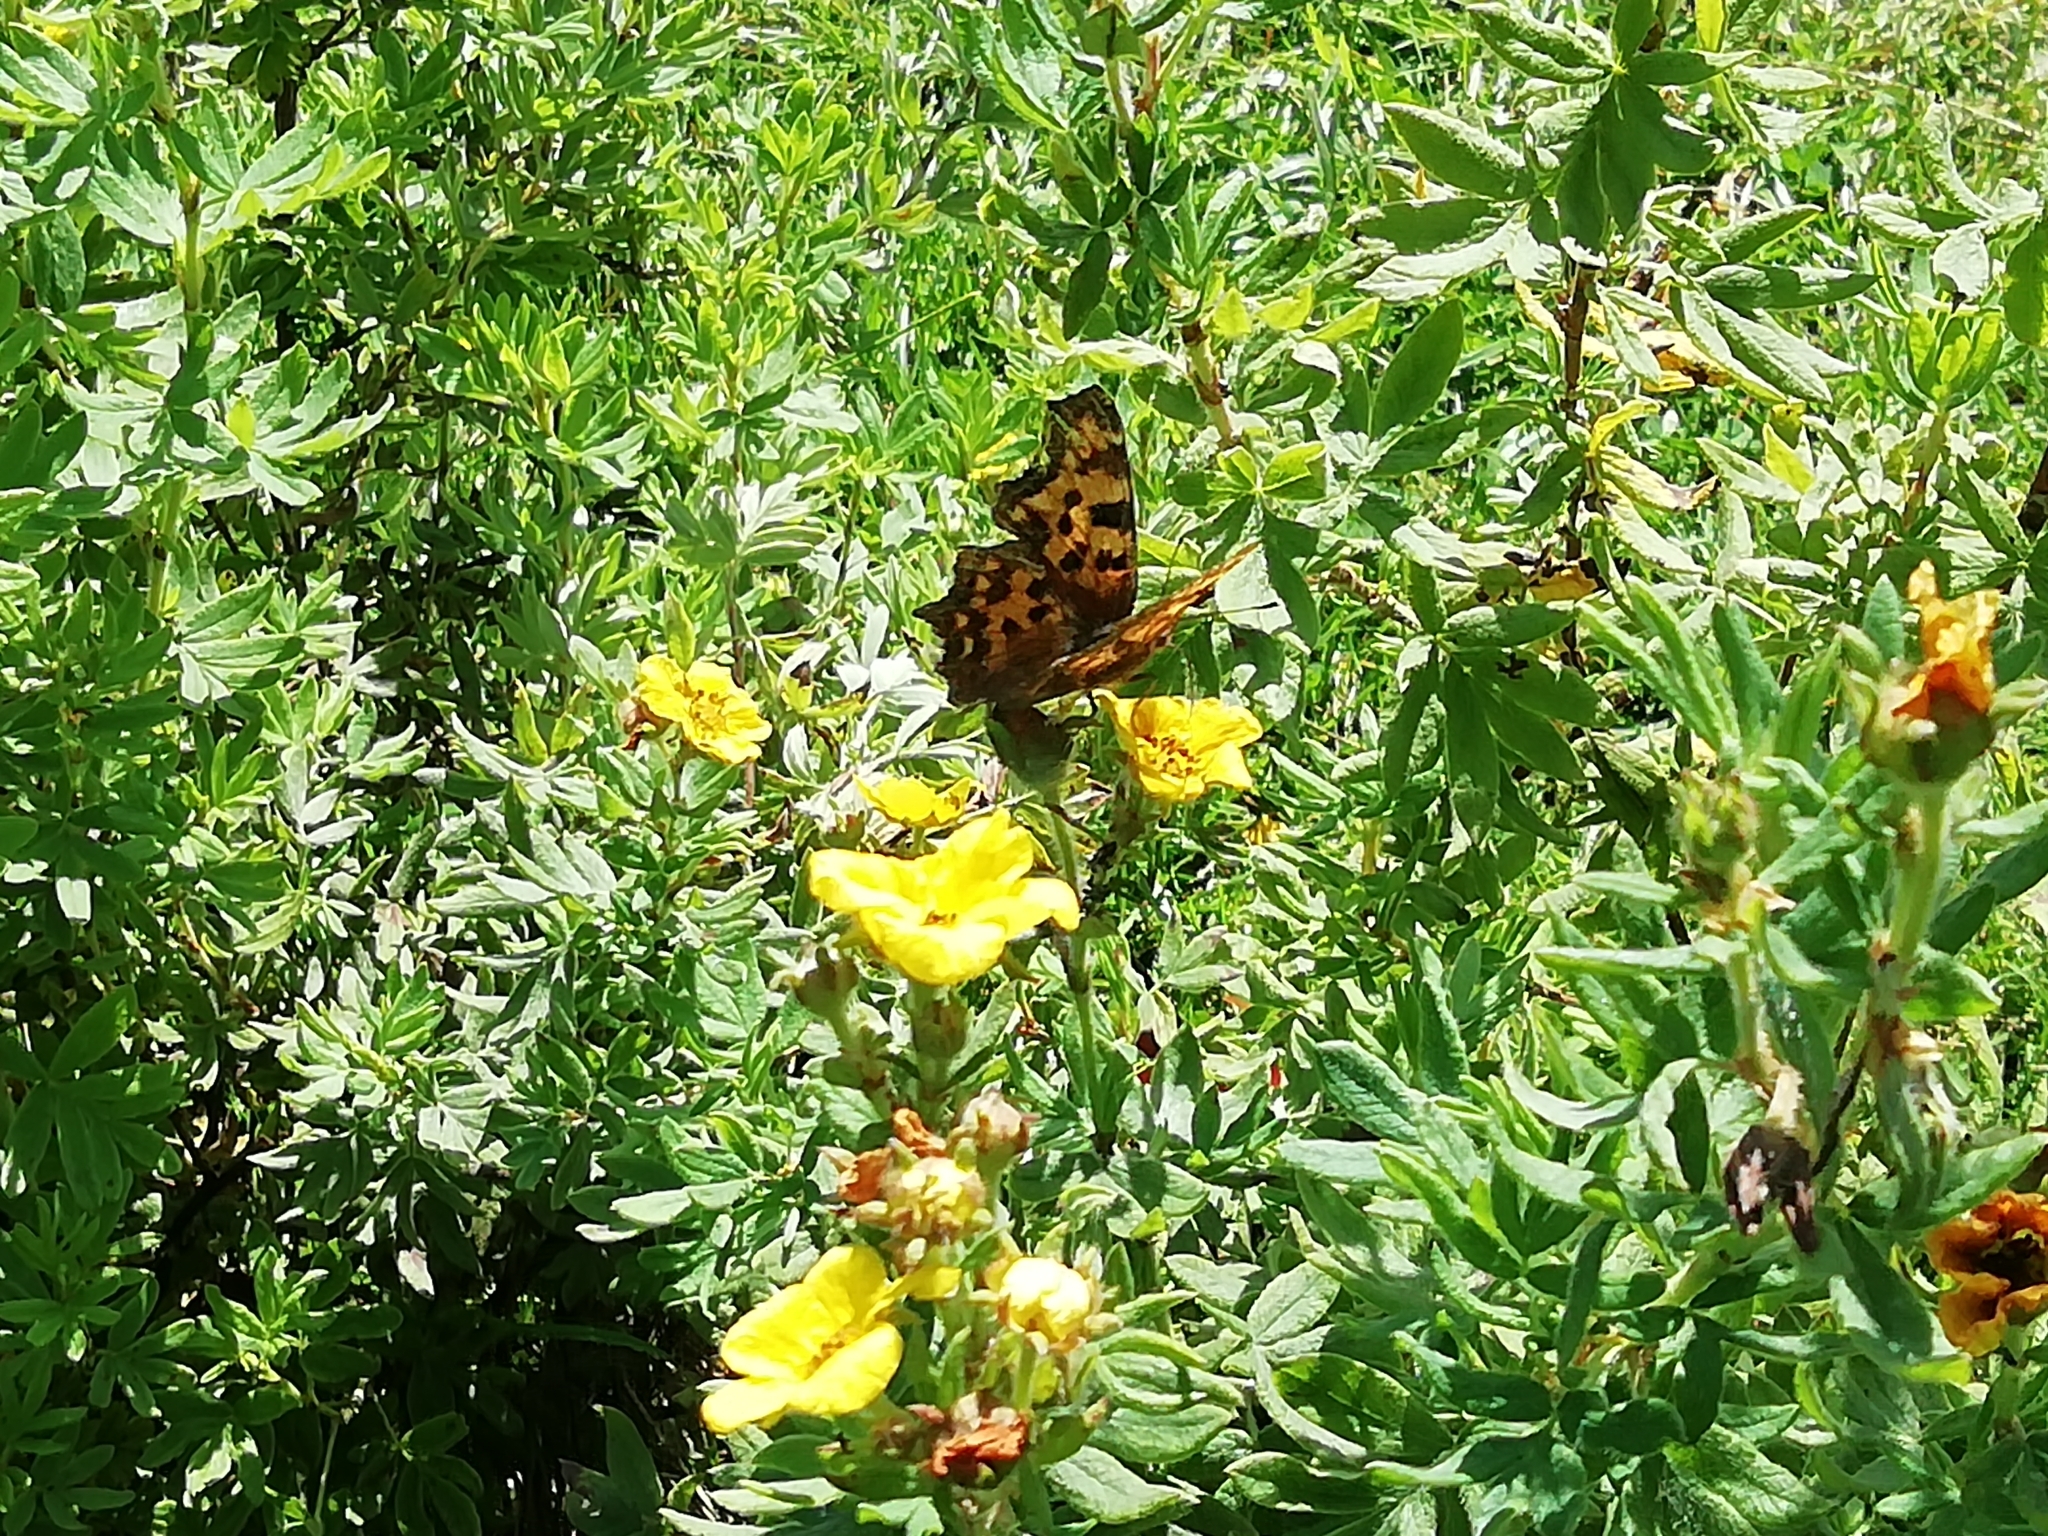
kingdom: Animalia
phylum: Arthropoda
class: Insecta
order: Lepidoptera
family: Nymphalidae
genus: Polygonia
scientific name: Polygonia c-album
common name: Comma
